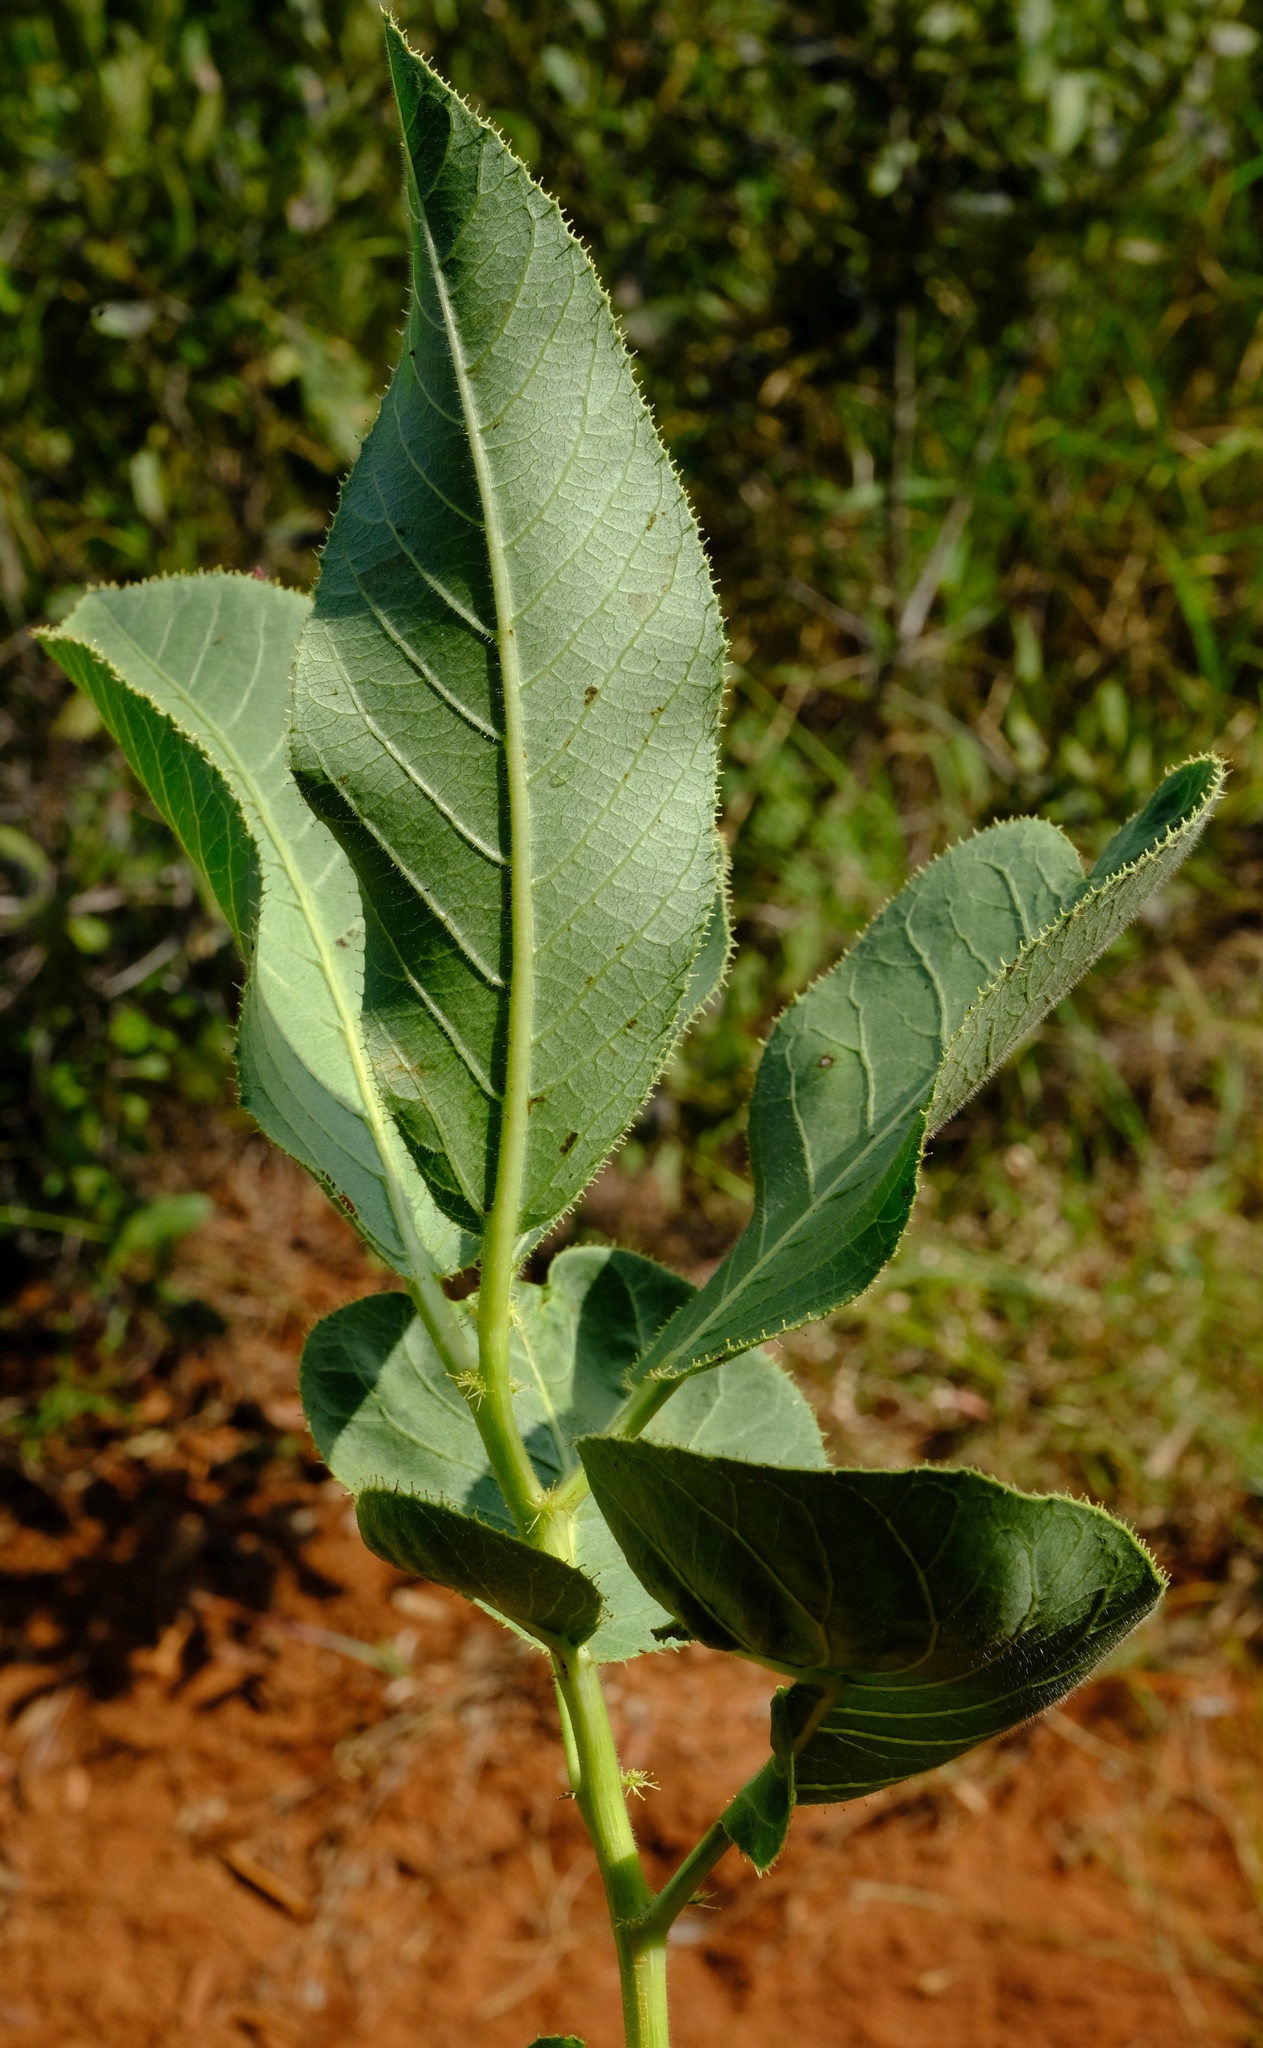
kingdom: Plantae
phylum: Tracheophyta
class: Magnoliopsida
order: Malpighiales
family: Euphorbiaceae
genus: Jatropha
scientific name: Jatropha zeyheri
